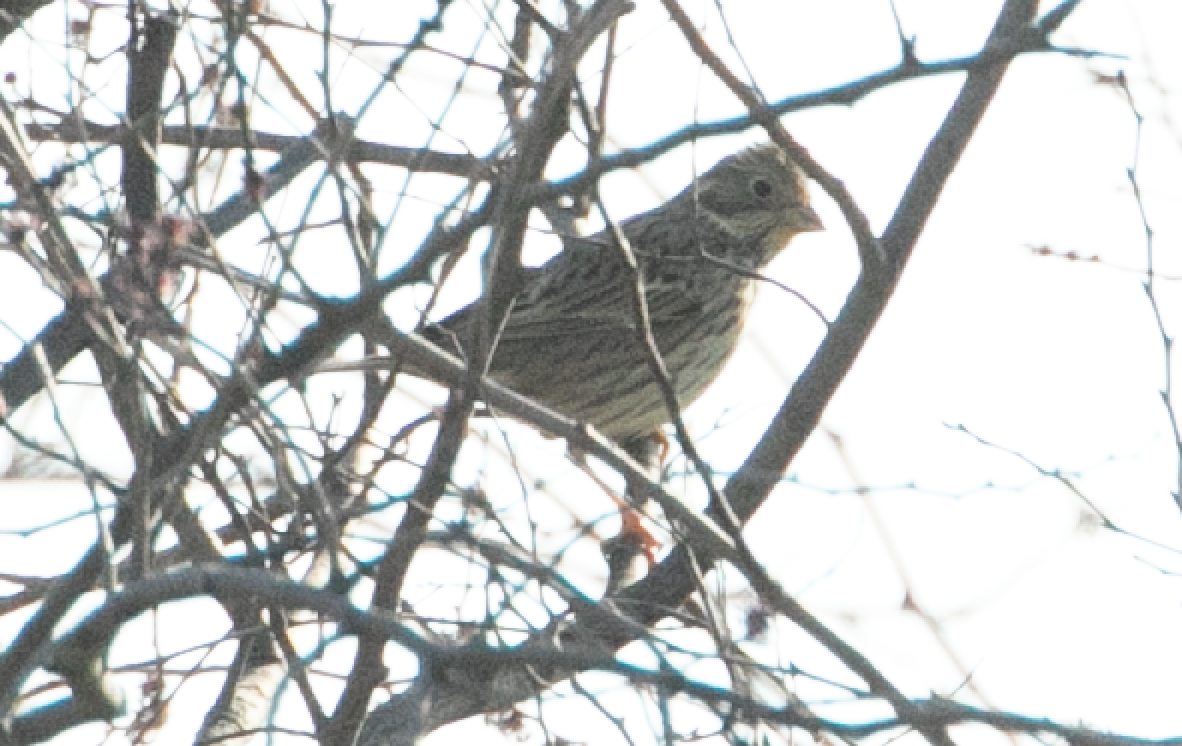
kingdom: Animalia
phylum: Chordata
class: Aves
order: Passeriformes
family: Emberizidae
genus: Emberiza
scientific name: Emberiza calandra
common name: Corn bunting
